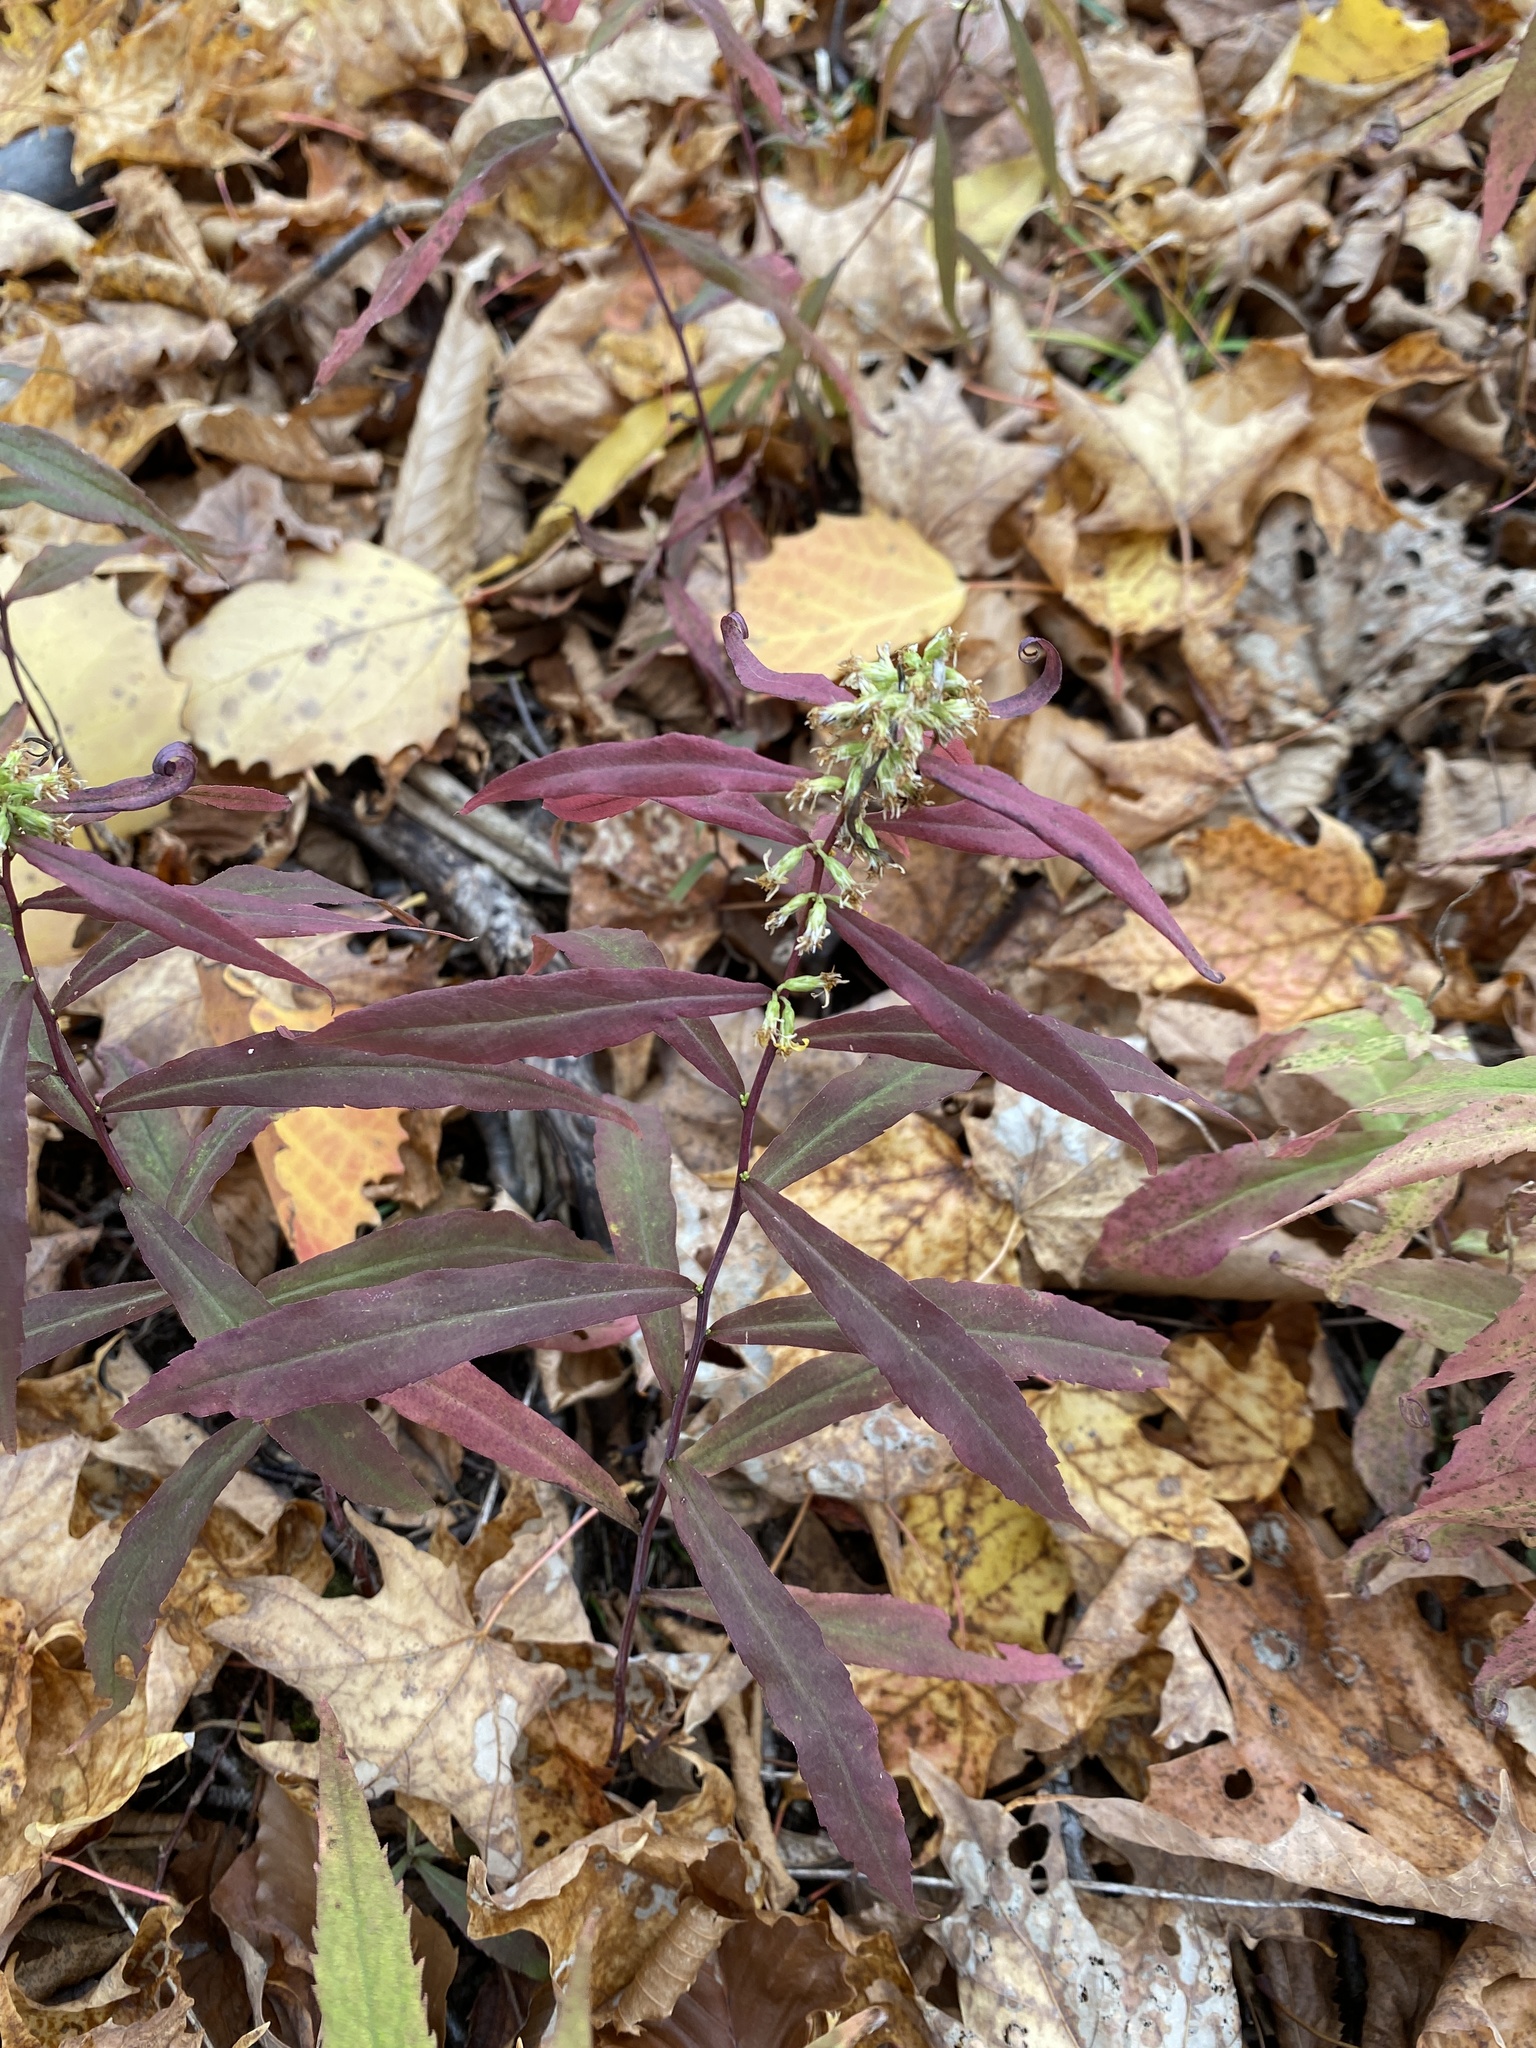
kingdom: Plantae
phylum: Tracheophyta
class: Magnoliopsida
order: Asterales
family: Asteraceae
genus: Solidago
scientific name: Solidago caesia
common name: Woodland goldenrod
